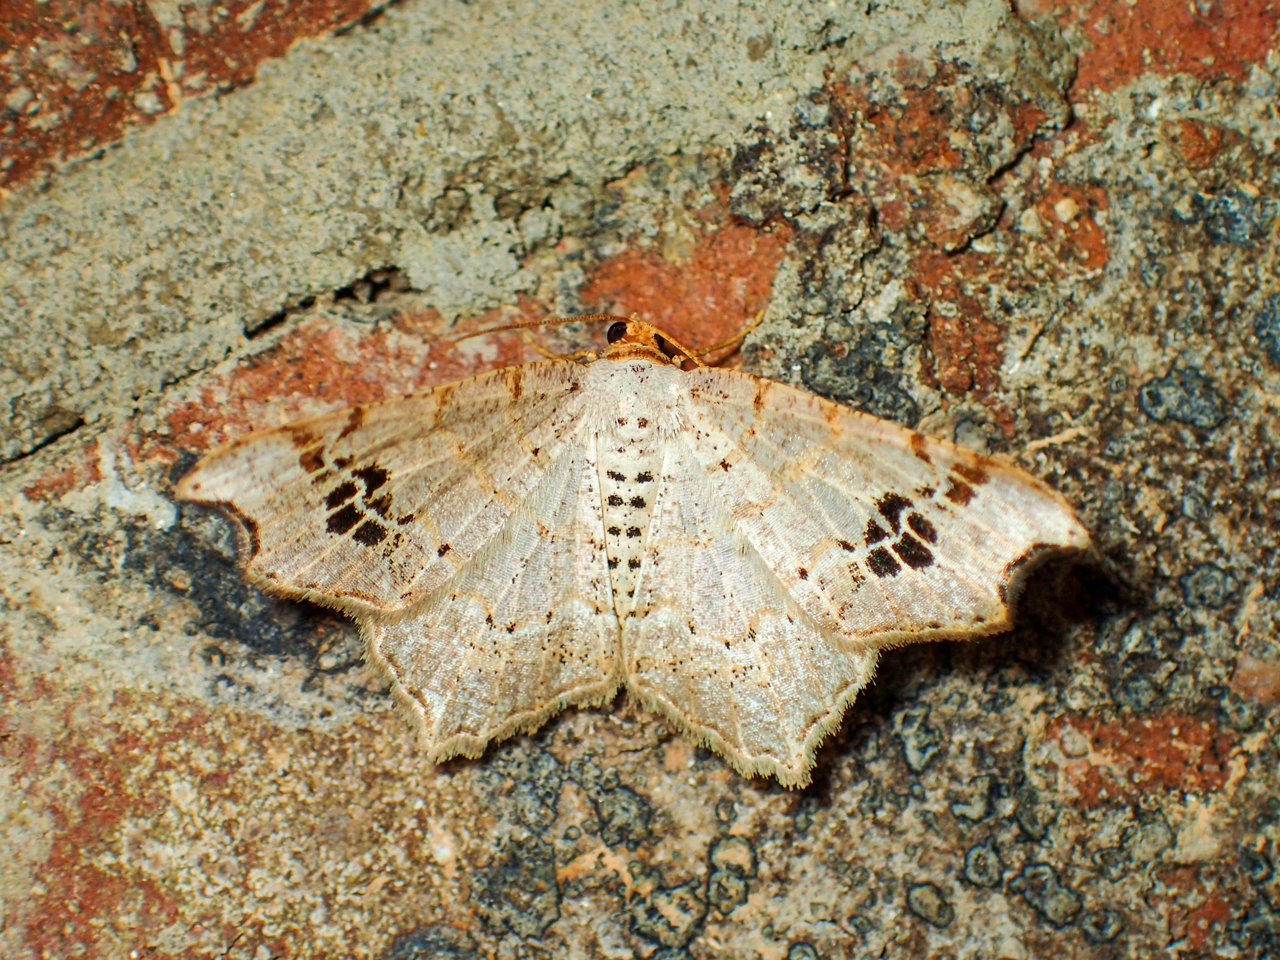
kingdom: Animalia
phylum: Arthropoda
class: Insecta
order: Lepidoptera
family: Geometridae
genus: Macaria
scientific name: Macaria aemulataria
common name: Common angle
